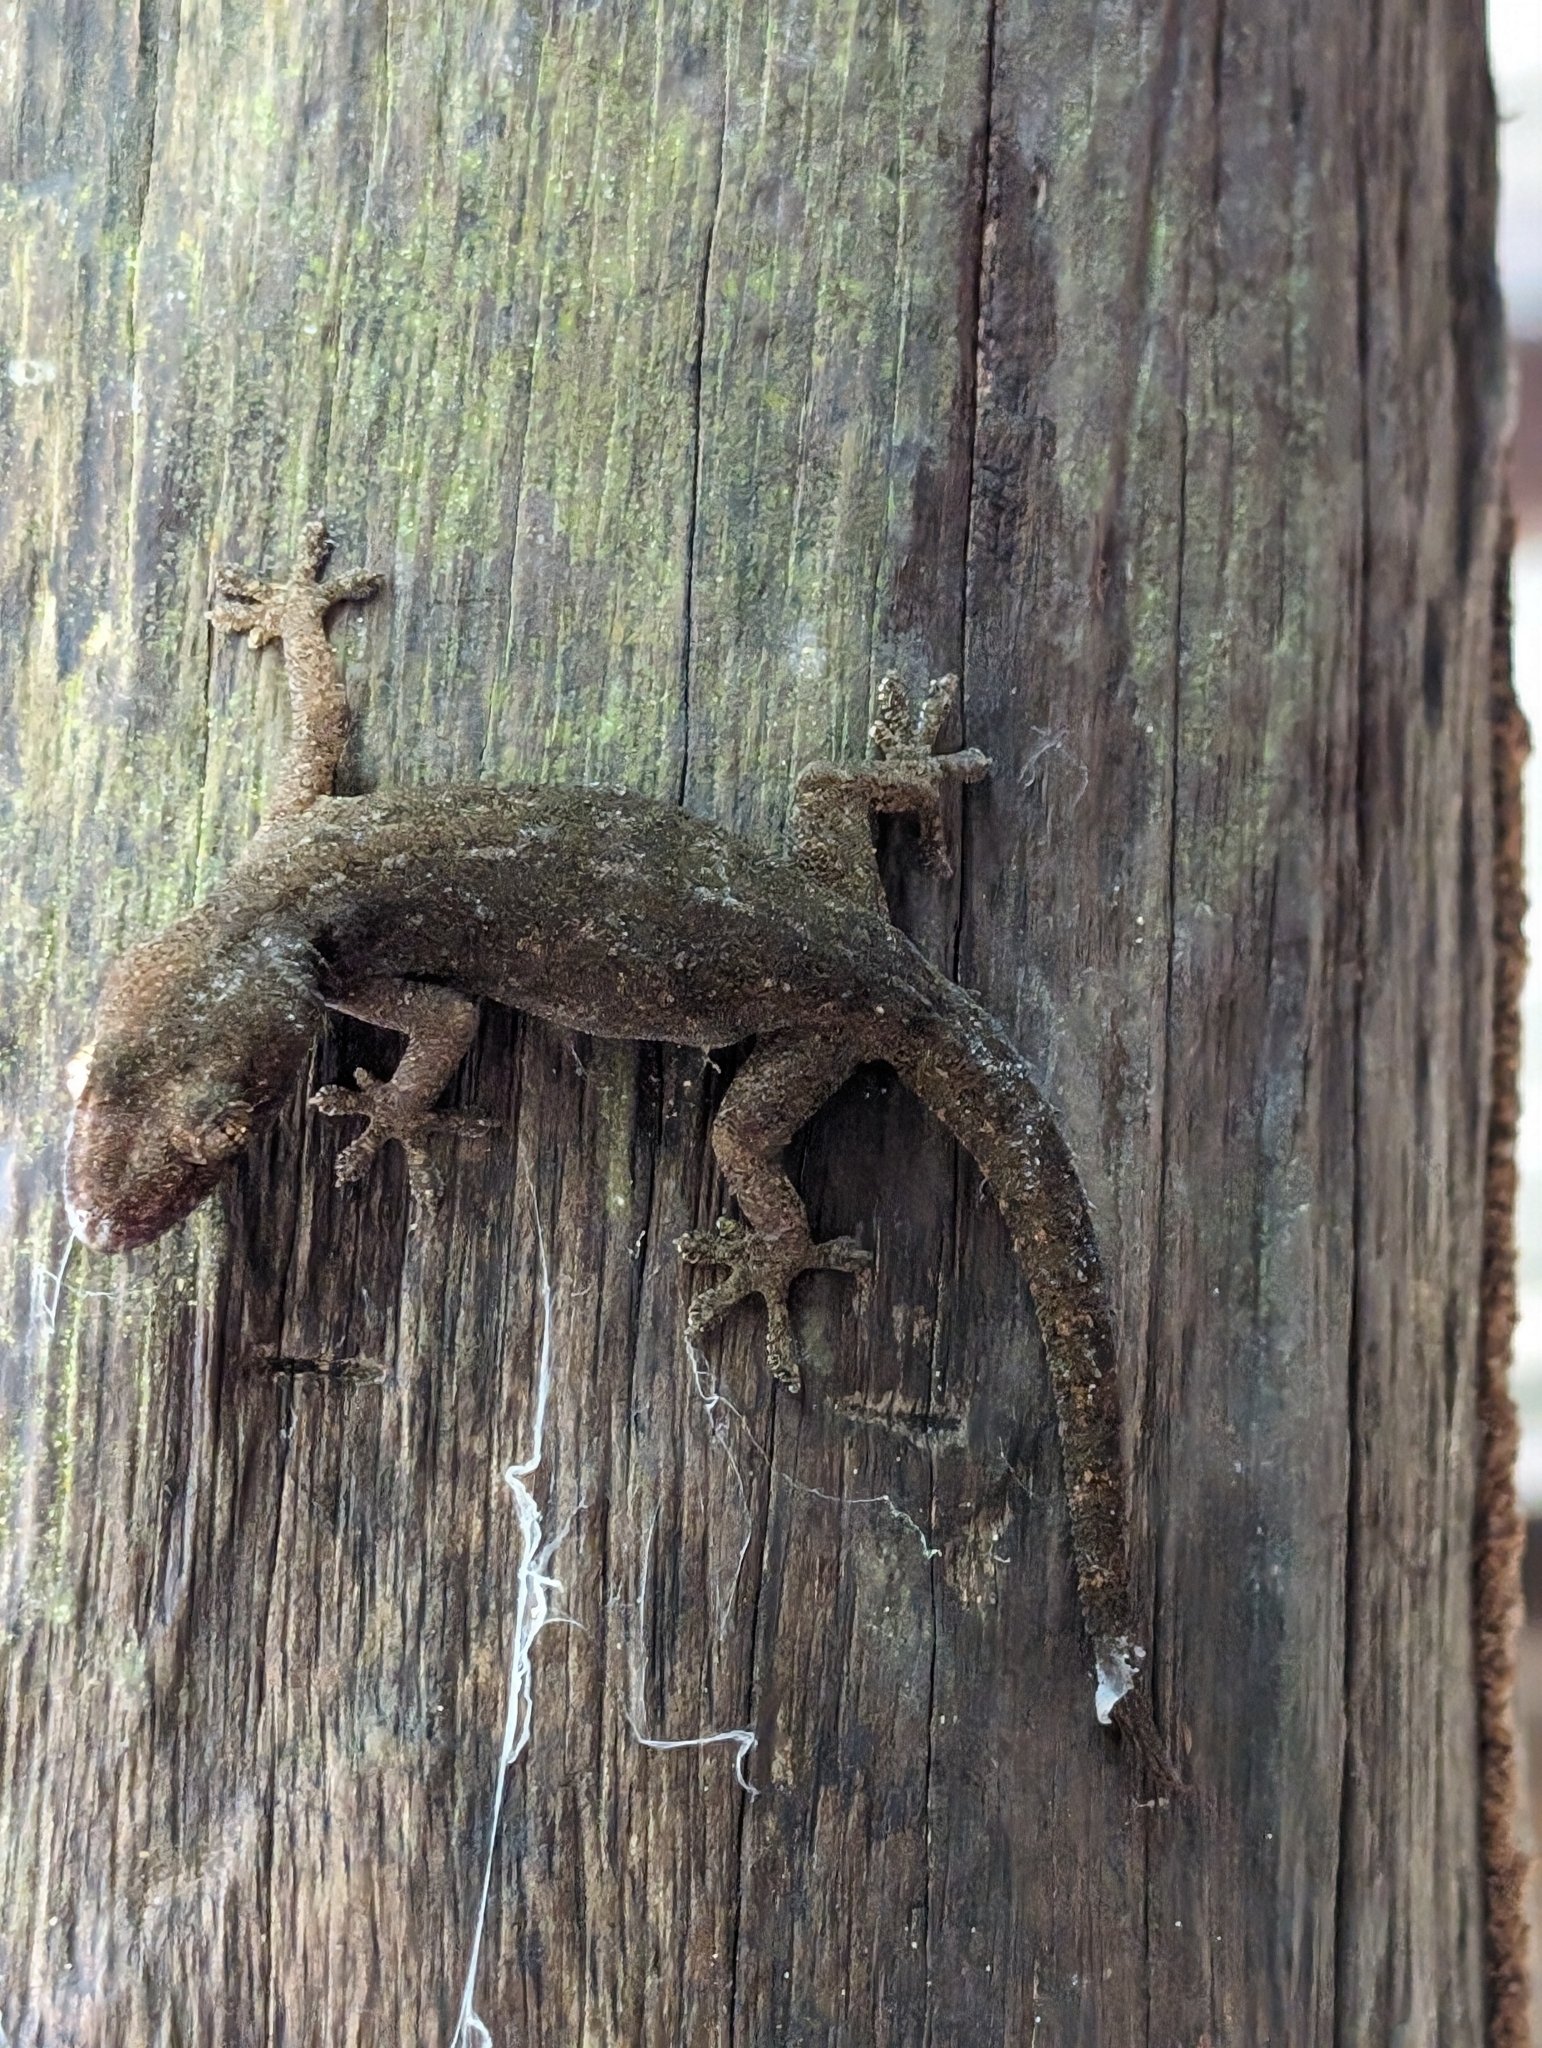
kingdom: Animalia
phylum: Chordata
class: Squamata
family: Gekkonidae
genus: Hemidactylus
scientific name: Hemidactylus frenatus
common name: Common house gecko
